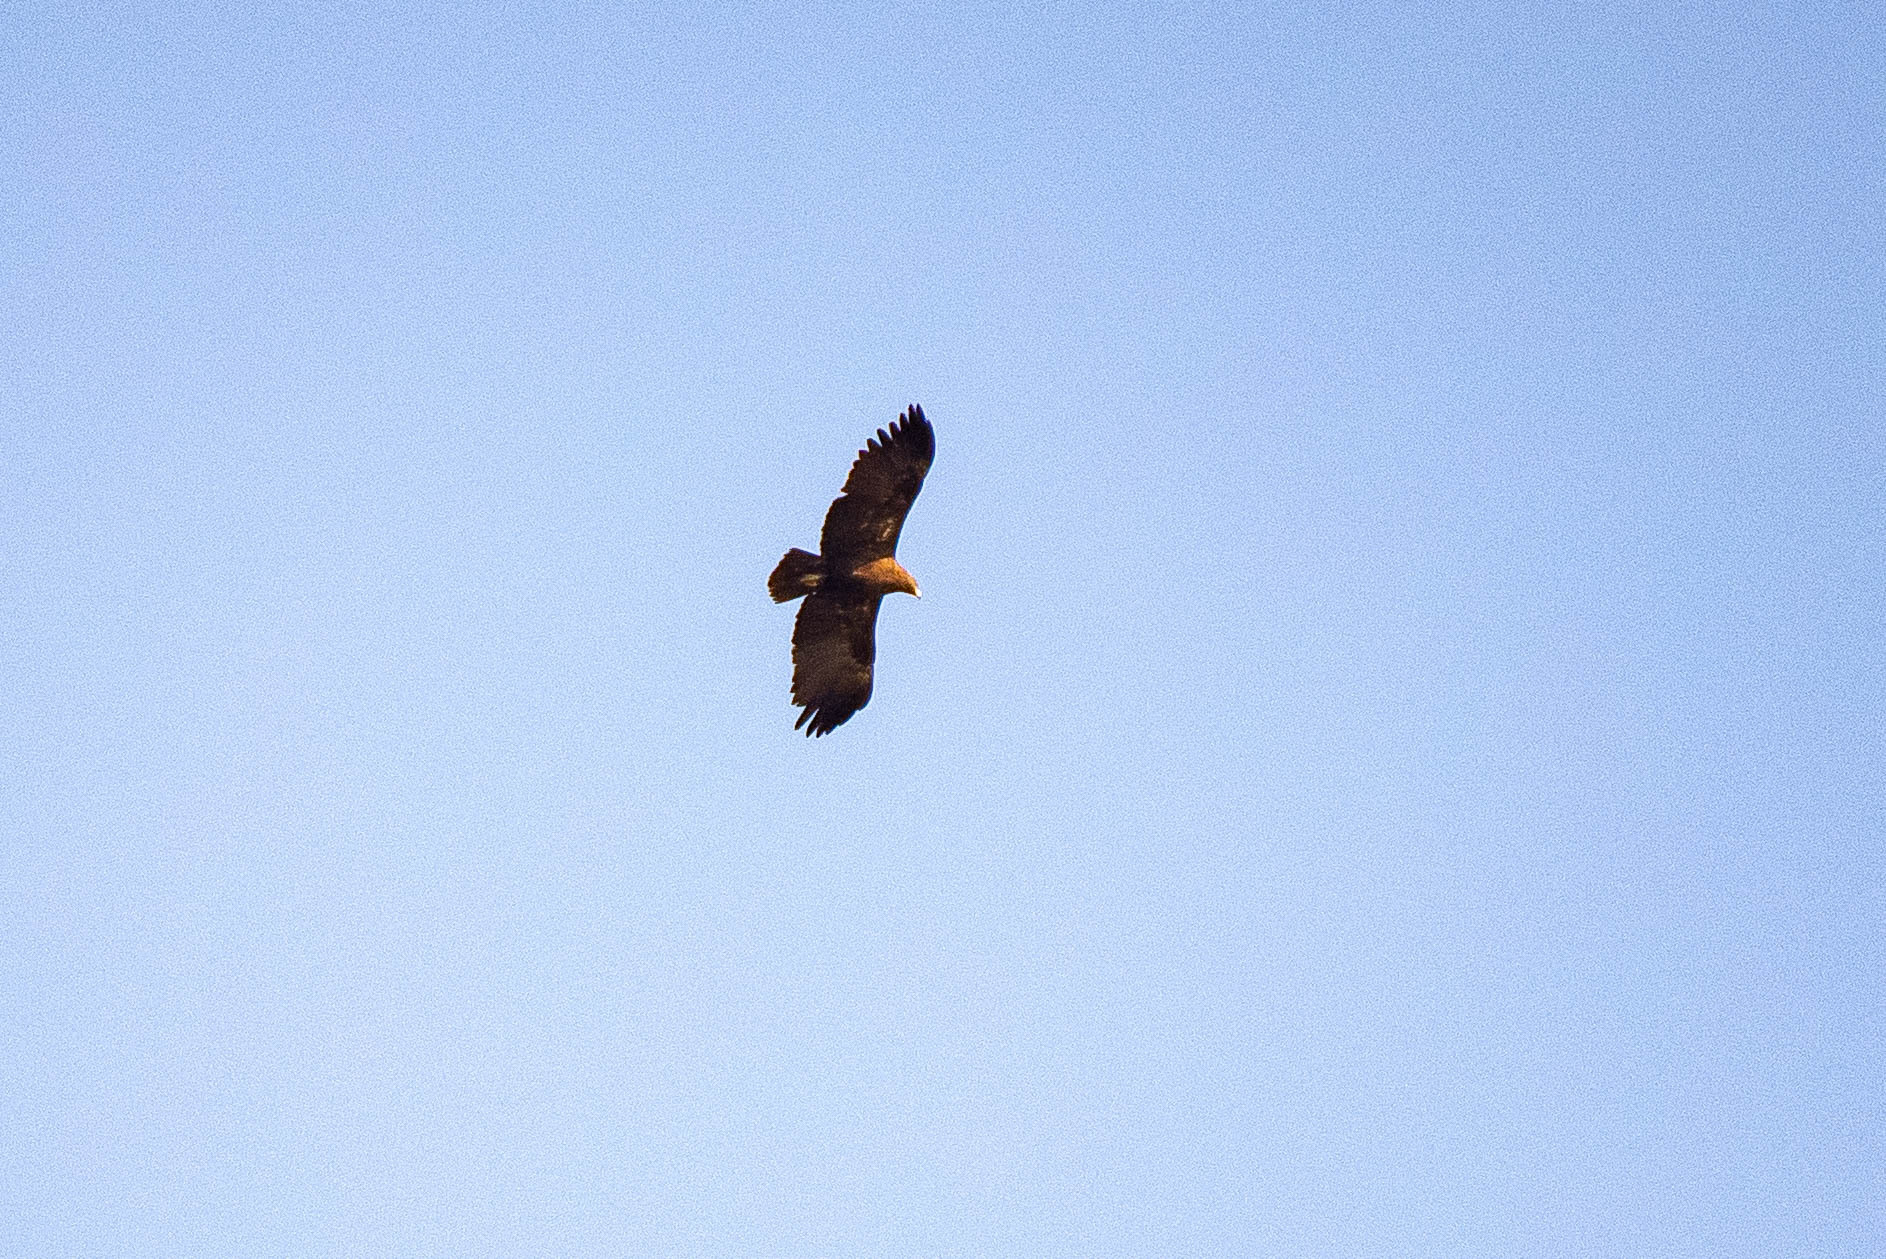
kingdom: Animalia
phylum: Chordata
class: Aves
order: Accipitriformes
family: Accipitridae
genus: Aquila
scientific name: Aquila clanga
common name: Greater spotted eagle
